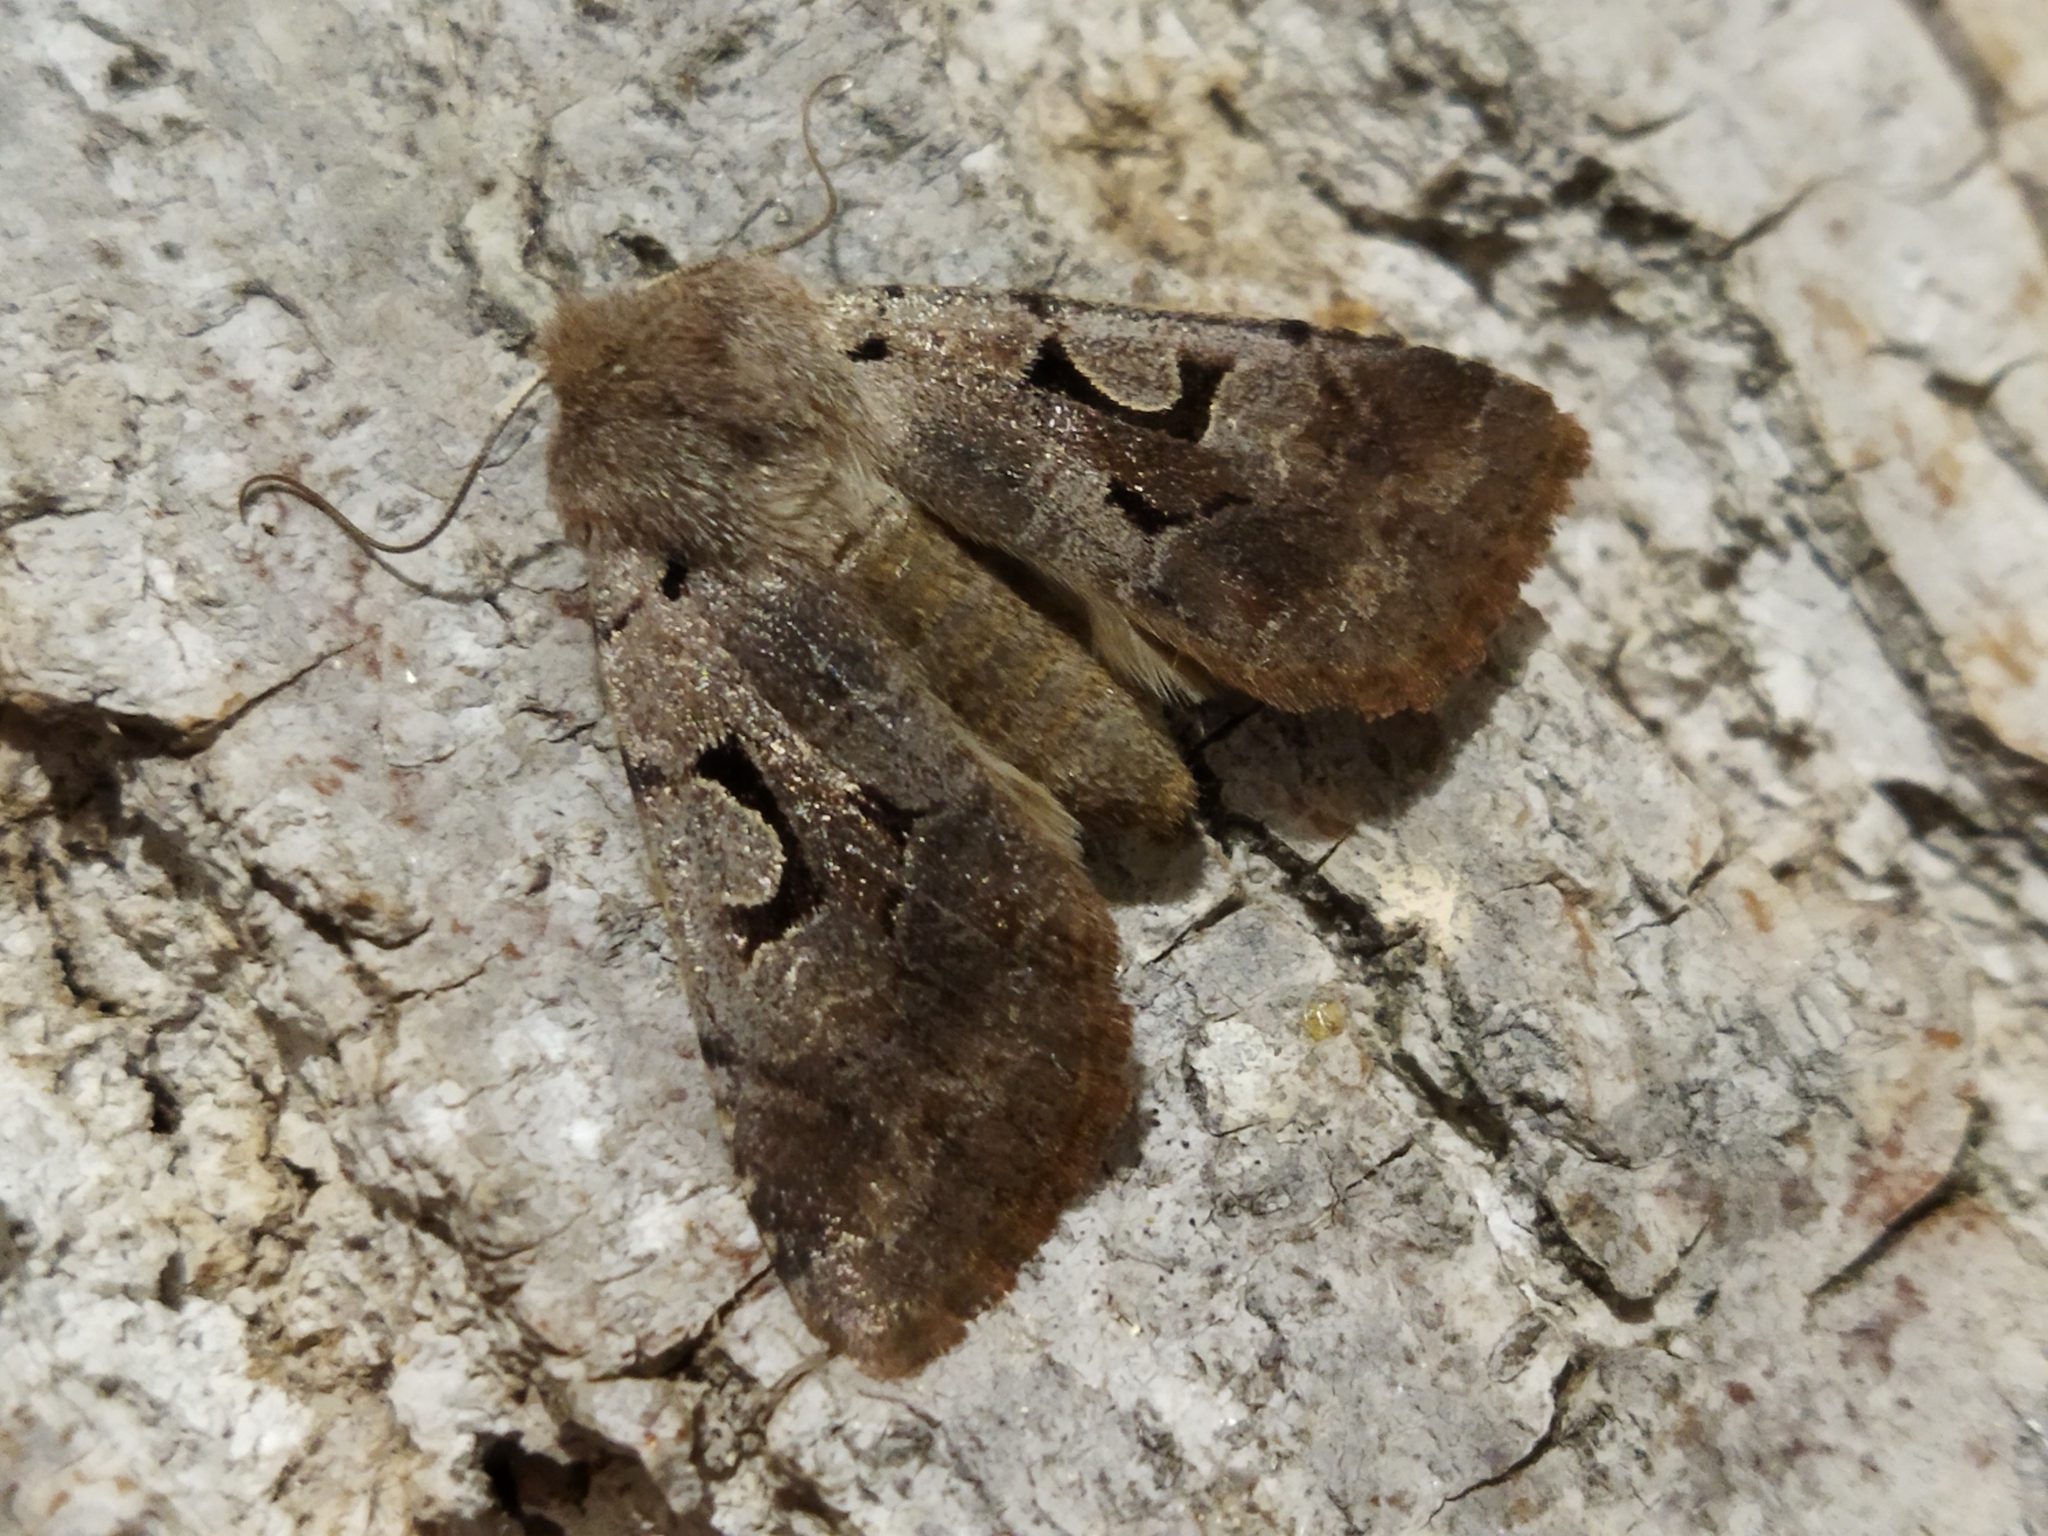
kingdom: Animalia
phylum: Arthropoda
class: Insecta
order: Lepidoptera
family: Noctuidae
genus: Orthosia
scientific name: Orthosia gothica
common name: Hebrew character
